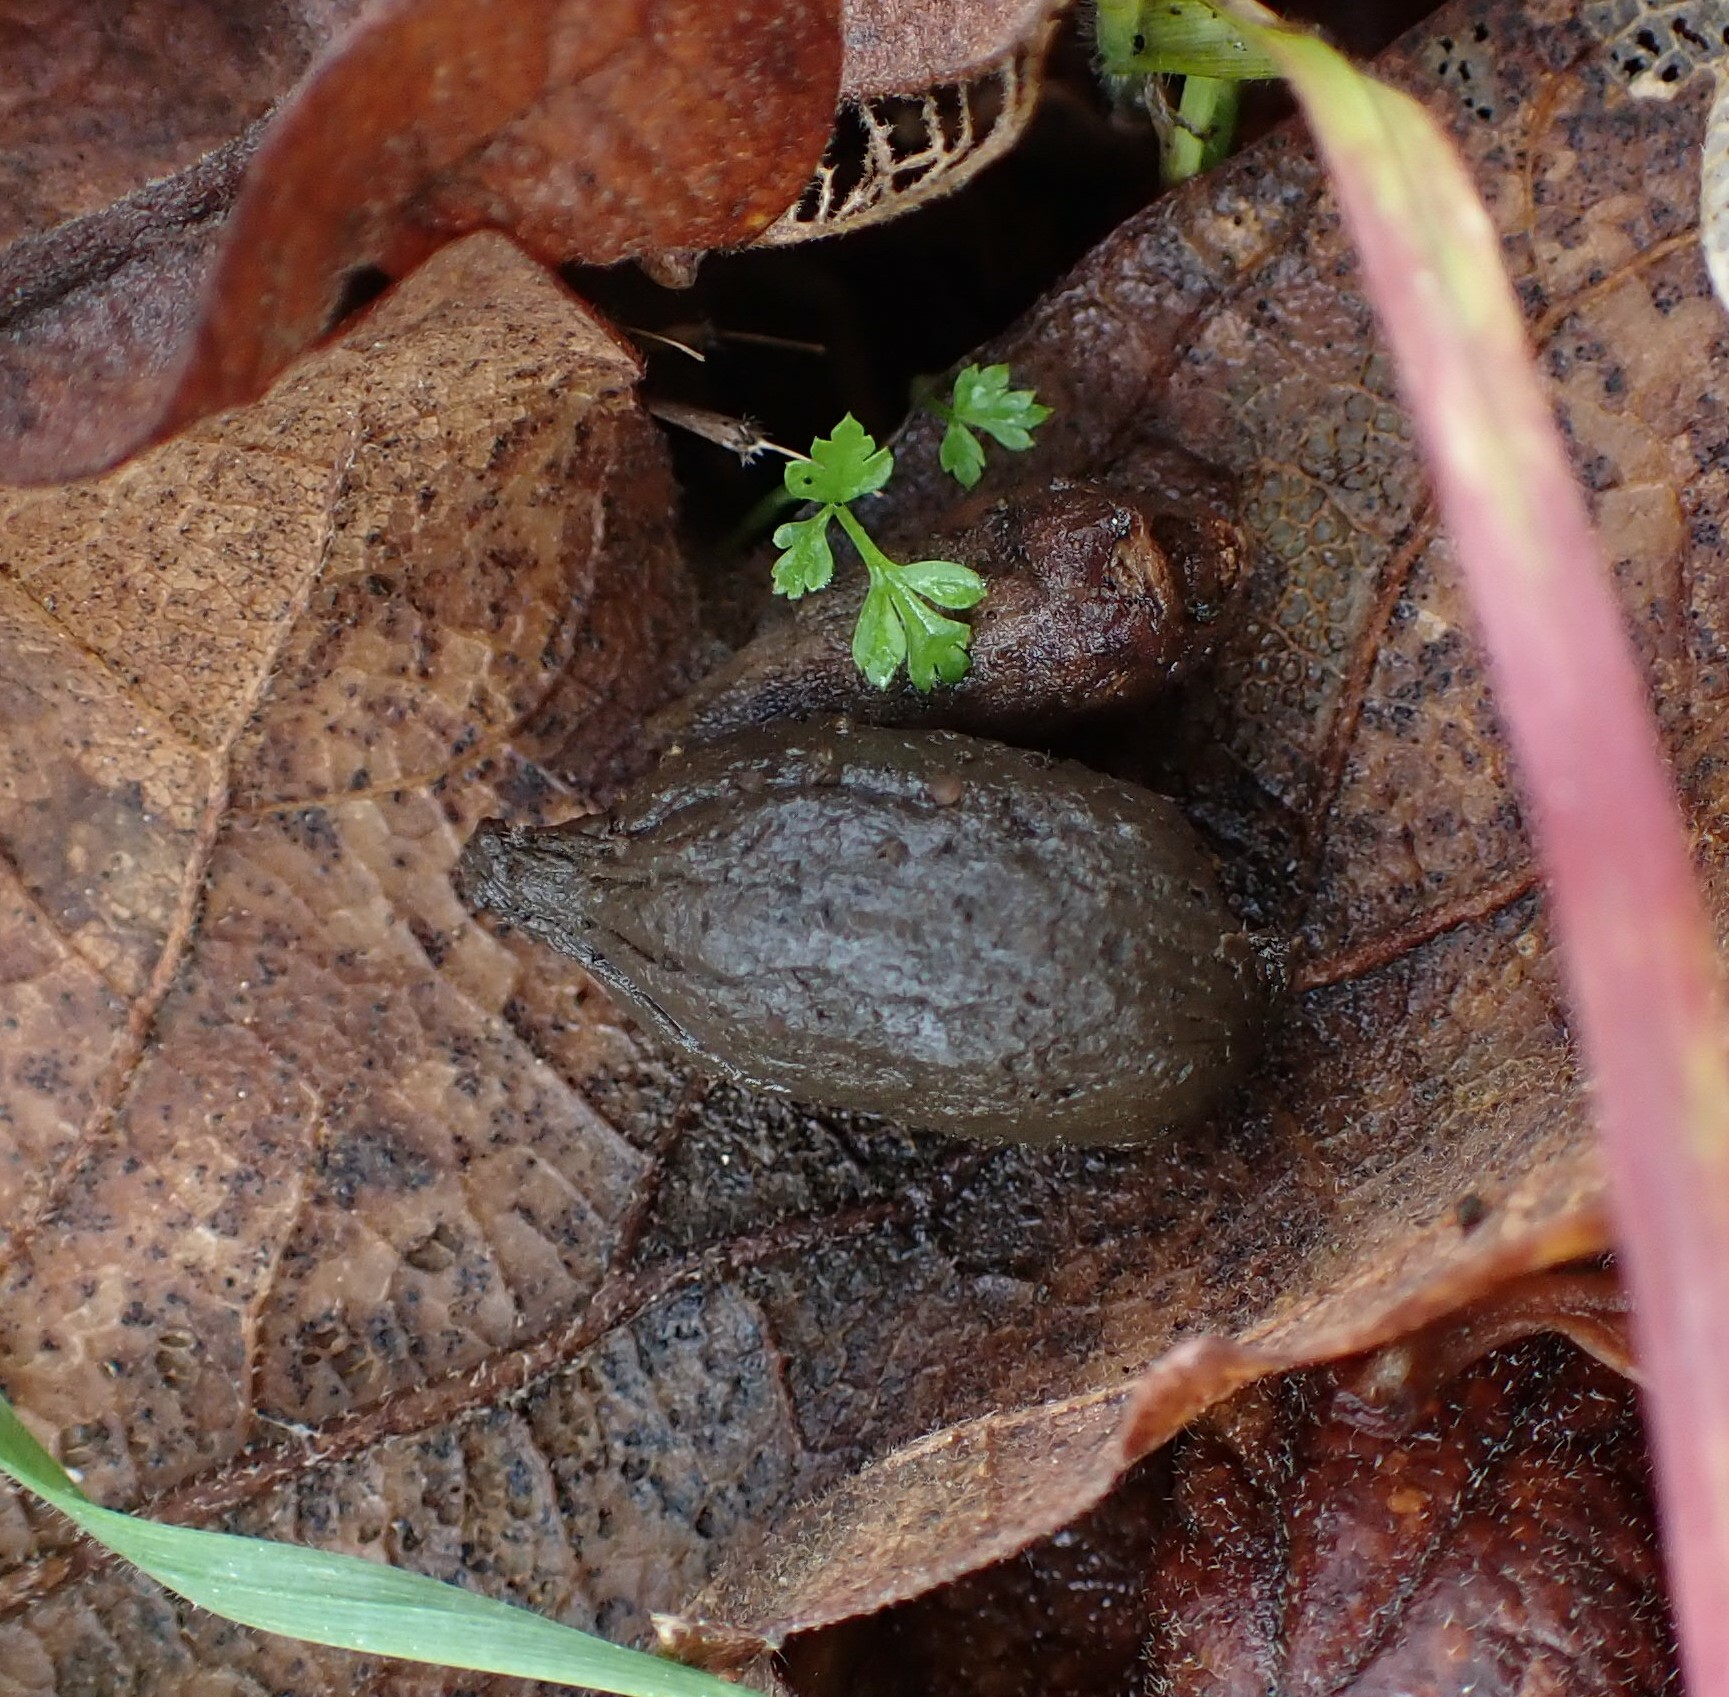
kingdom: Animalia
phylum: Chordata
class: Mammalia
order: Artiodactyla
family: Cervidae
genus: Odocoileus
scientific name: Odocoileus hemionus
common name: Mule deer
